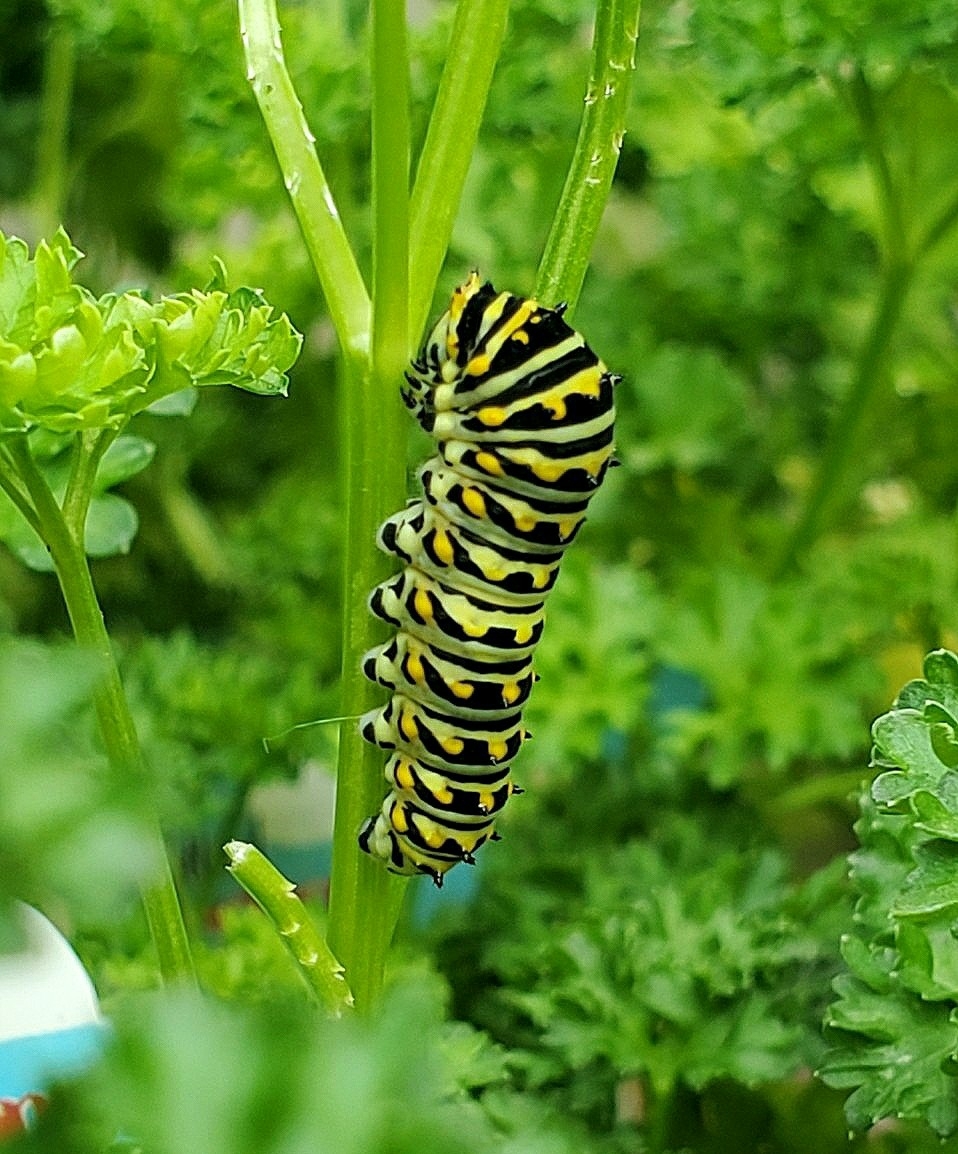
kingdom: Animalia
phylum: Arthropoda
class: Insecta
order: Lepidoptera
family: Papilionidae
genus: Papilio
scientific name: Papilio polyxenes
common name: Black swallowtail
